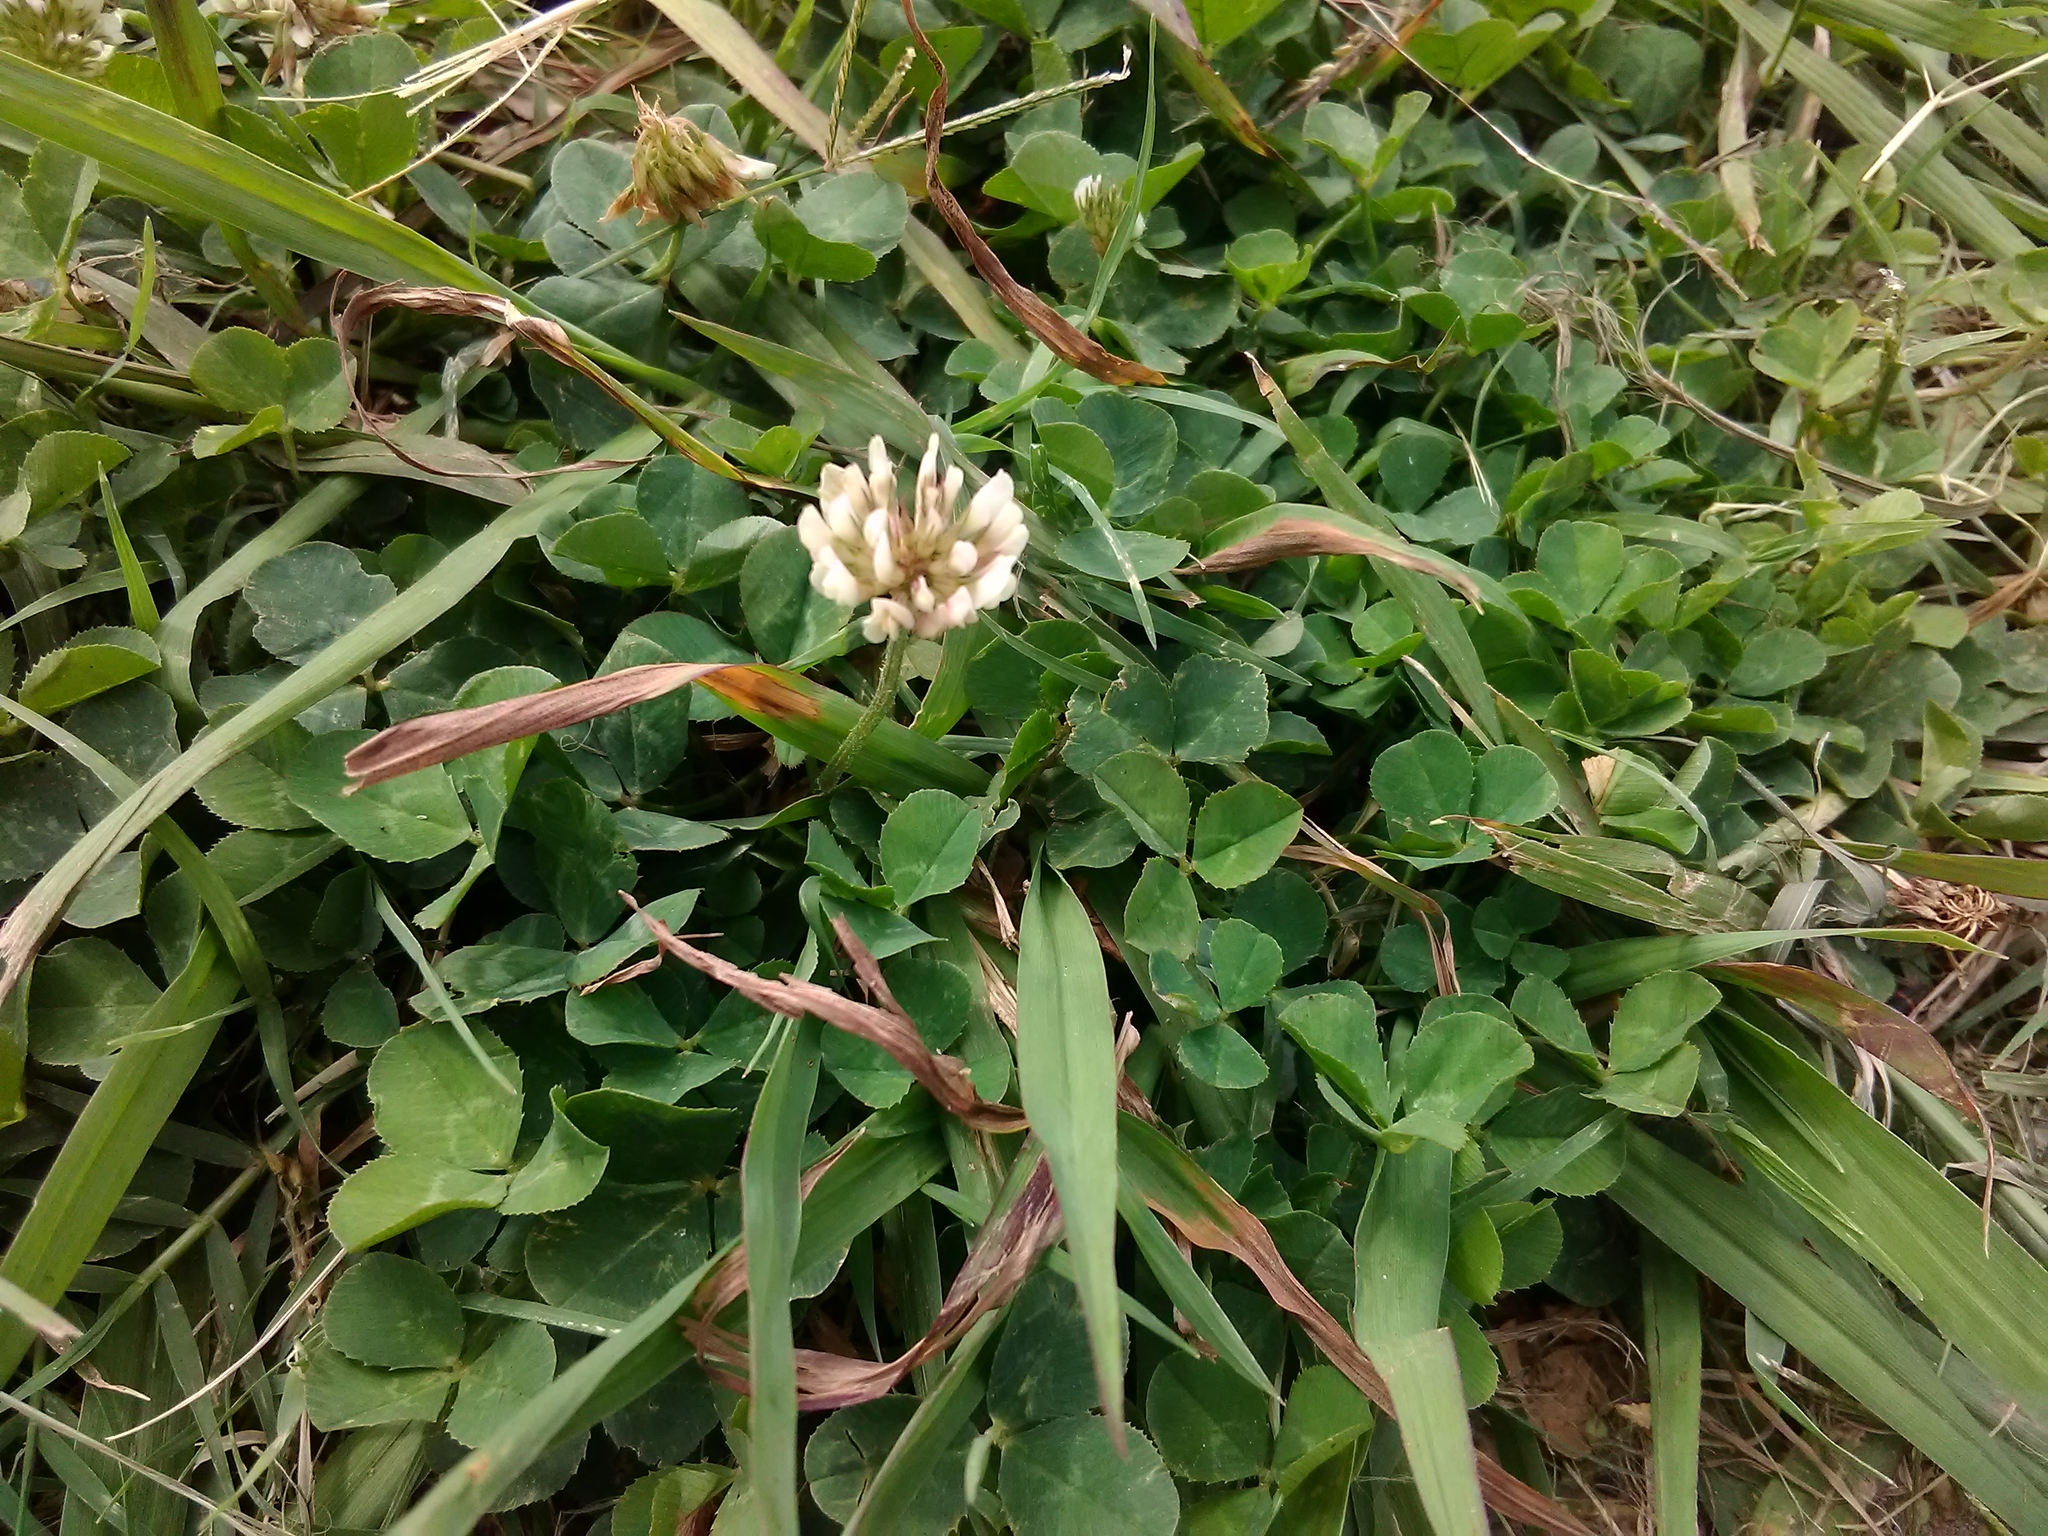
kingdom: Plantae
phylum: Tracheophyta
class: Magnoliopsida
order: Fabales
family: Fabaceae
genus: Trifolium
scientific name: Trifolium repens
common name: White clover
